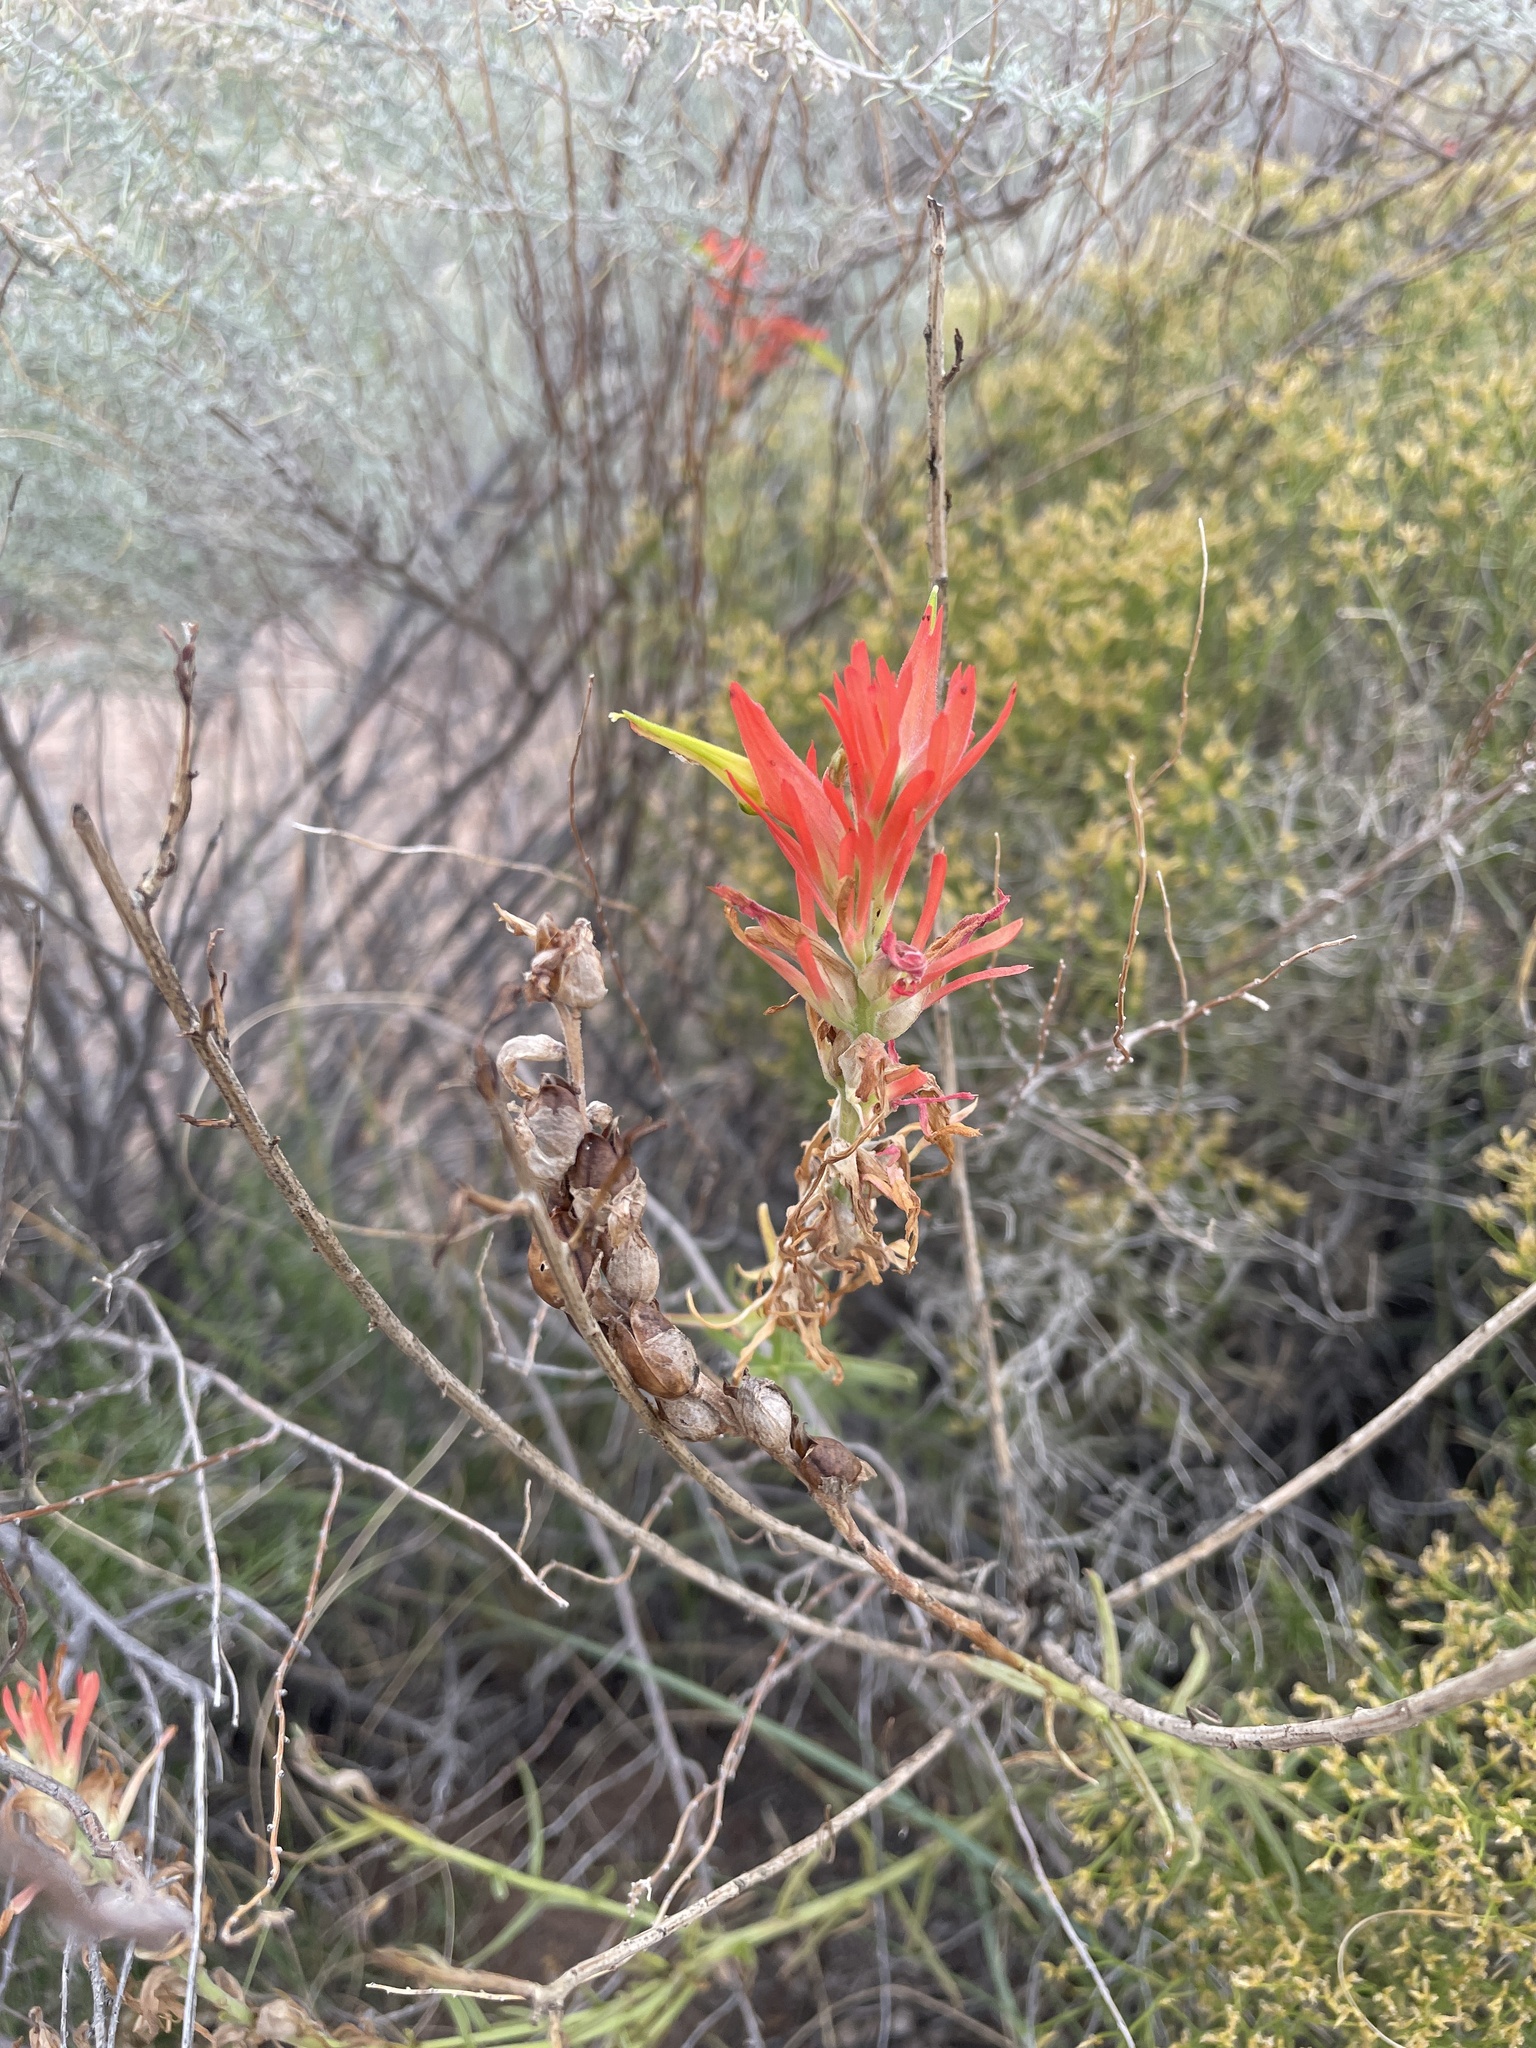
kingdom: Plantae
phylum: Tracheophyta
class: Magnoliopsida
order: Lamiales
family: Orobanchaceae
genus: Castilleja
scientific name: Castilleja linariifolia
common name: Wyoming paintbrush
